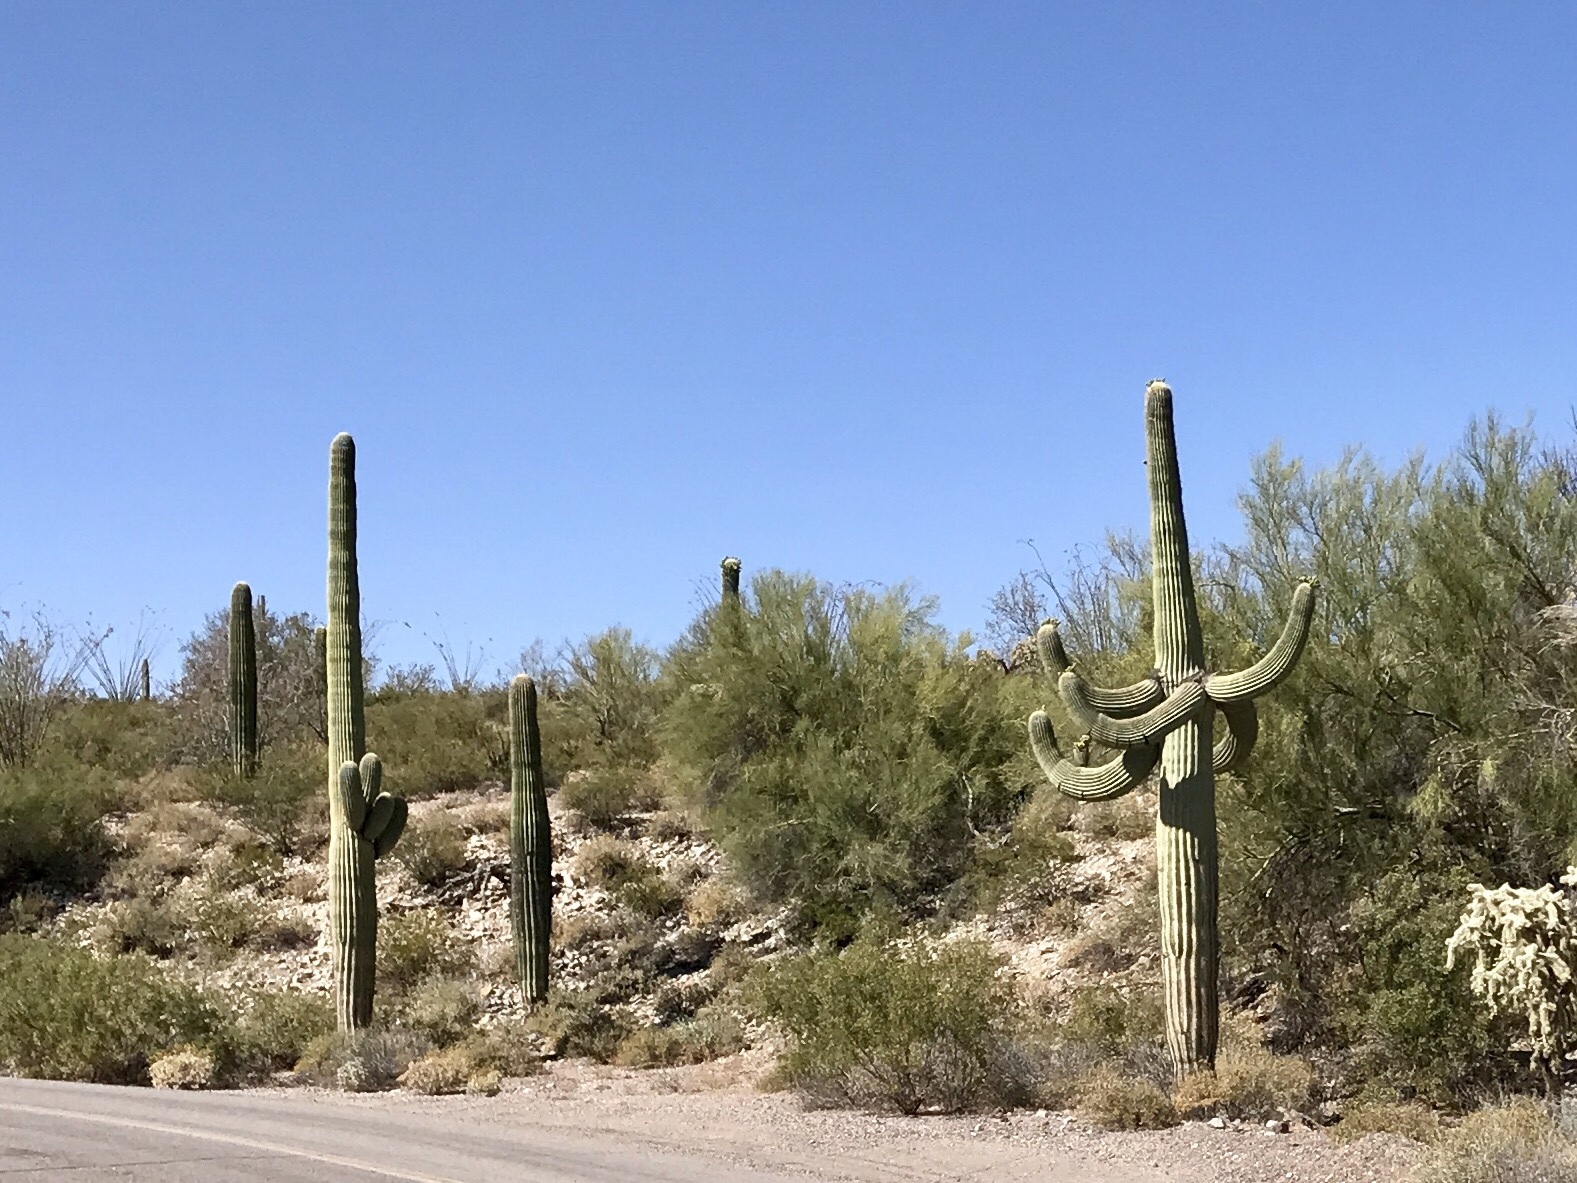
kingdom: Plantae
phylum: Tracheophyta
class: Magnoliopsida
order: Caryophyllales
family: Cactaceae
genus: Carnegiea
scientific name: Carnegiea gigantea
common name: Saguaro
